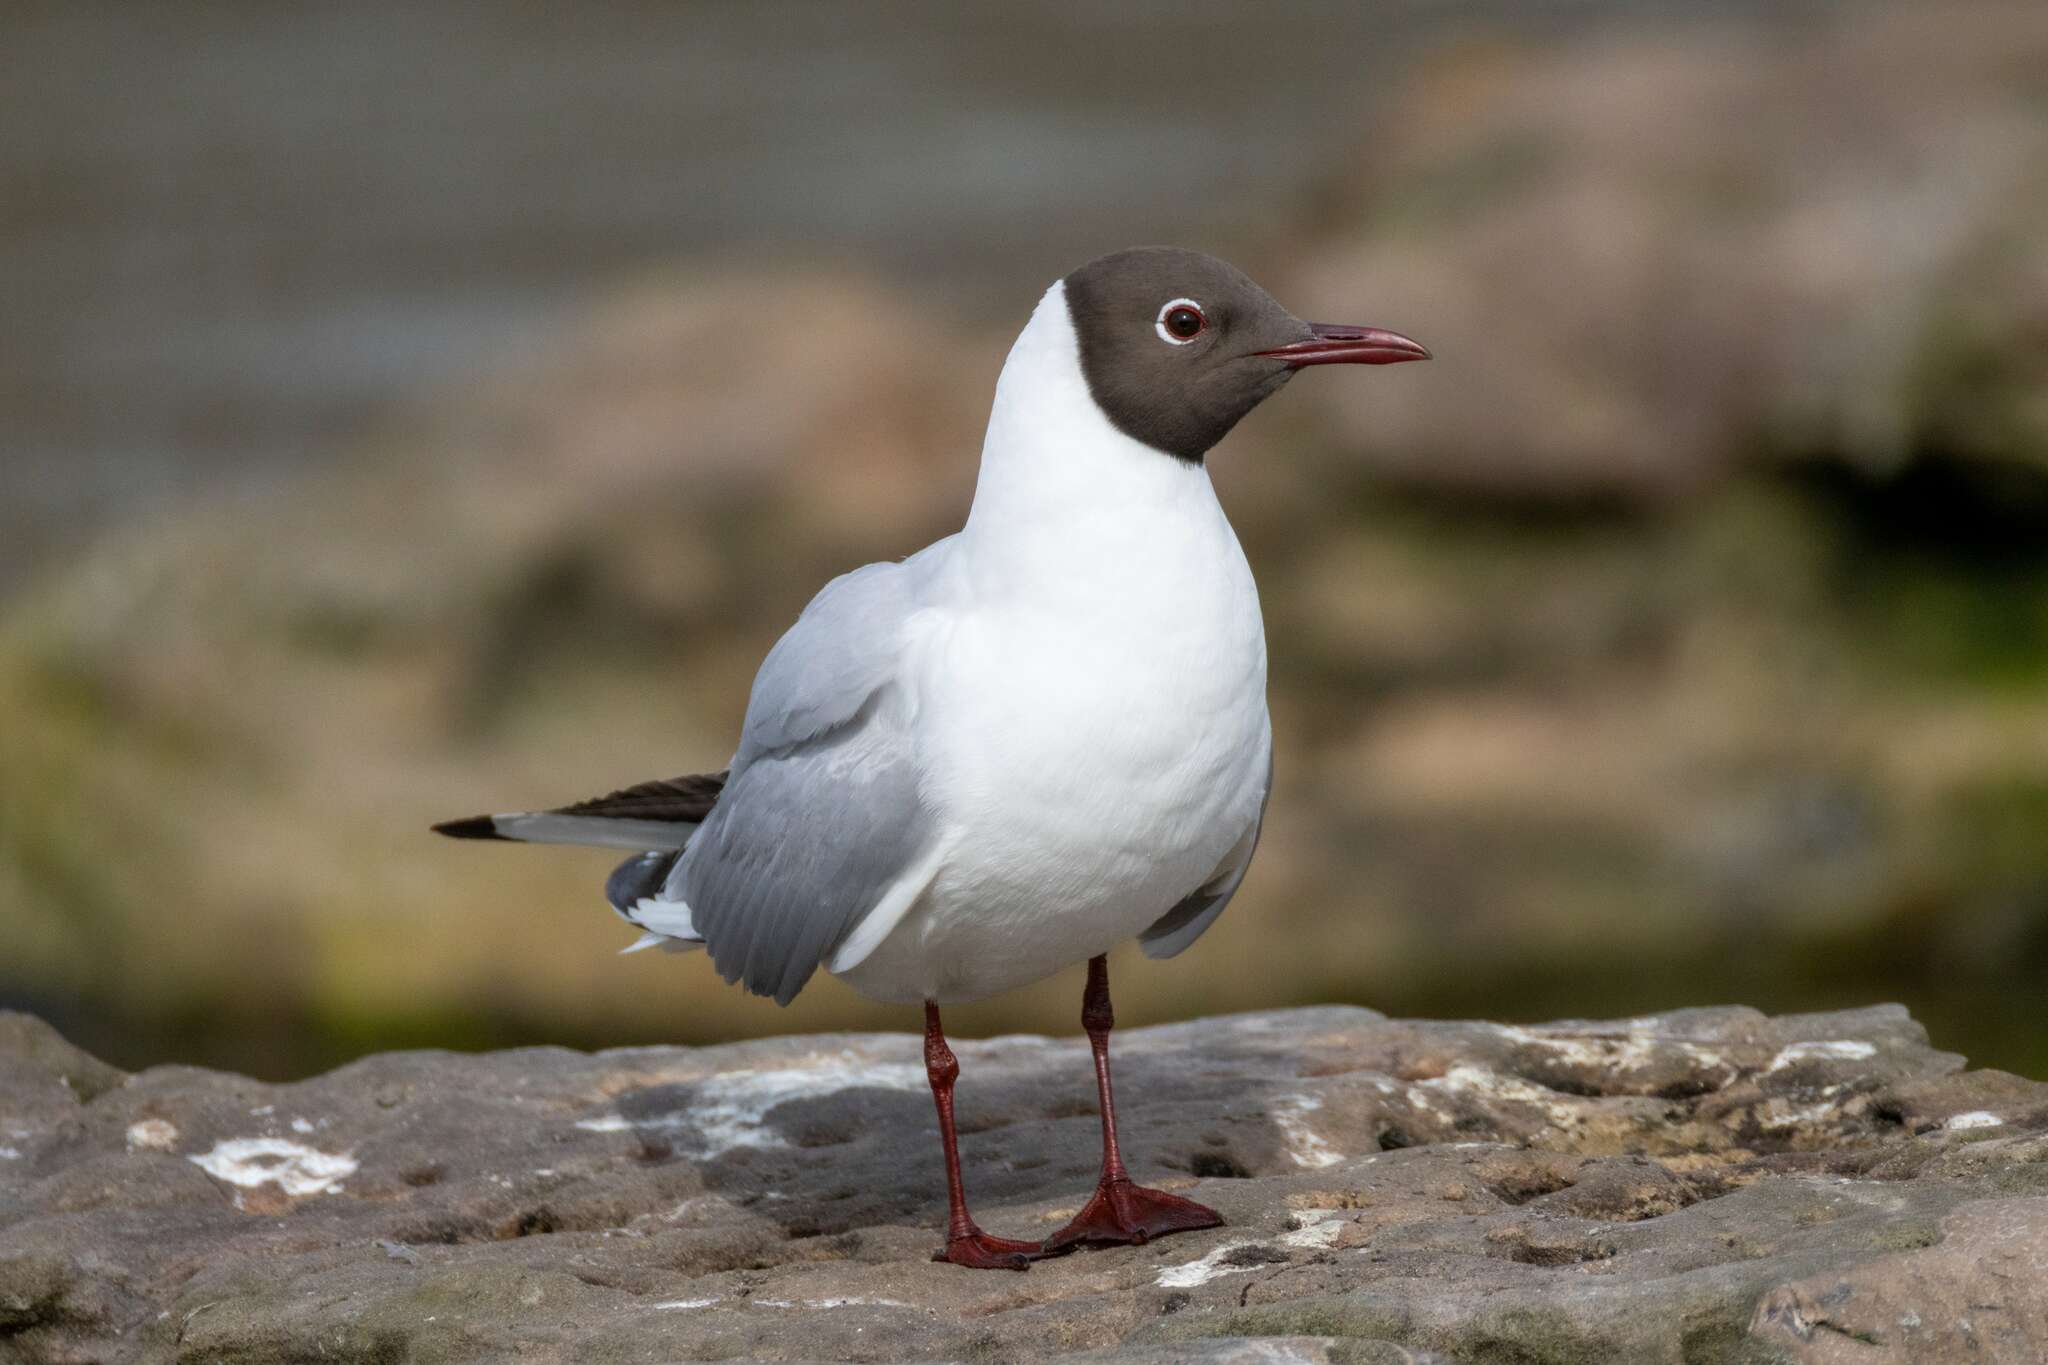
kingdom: Animalia
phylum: Chordata
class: Aves
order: Charadriiformes
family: Laridae
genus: Chroicocephalus
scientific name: Chroicocephalus ridibundus
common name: Black-headed gull
